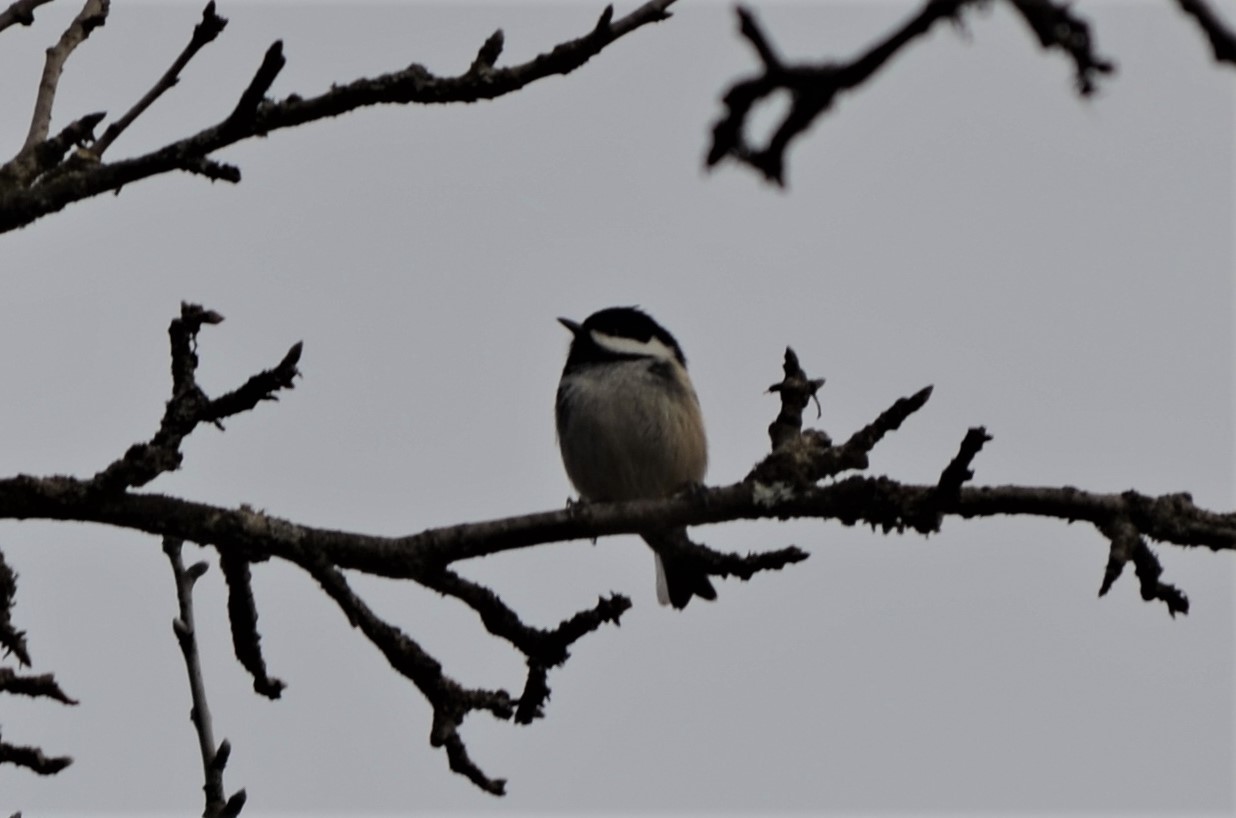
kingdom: Animalia
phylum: Chordata
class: Aves
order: Passeriformes
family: Paridae
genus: Periparus
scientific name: Periparus ater
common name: Coal tit
